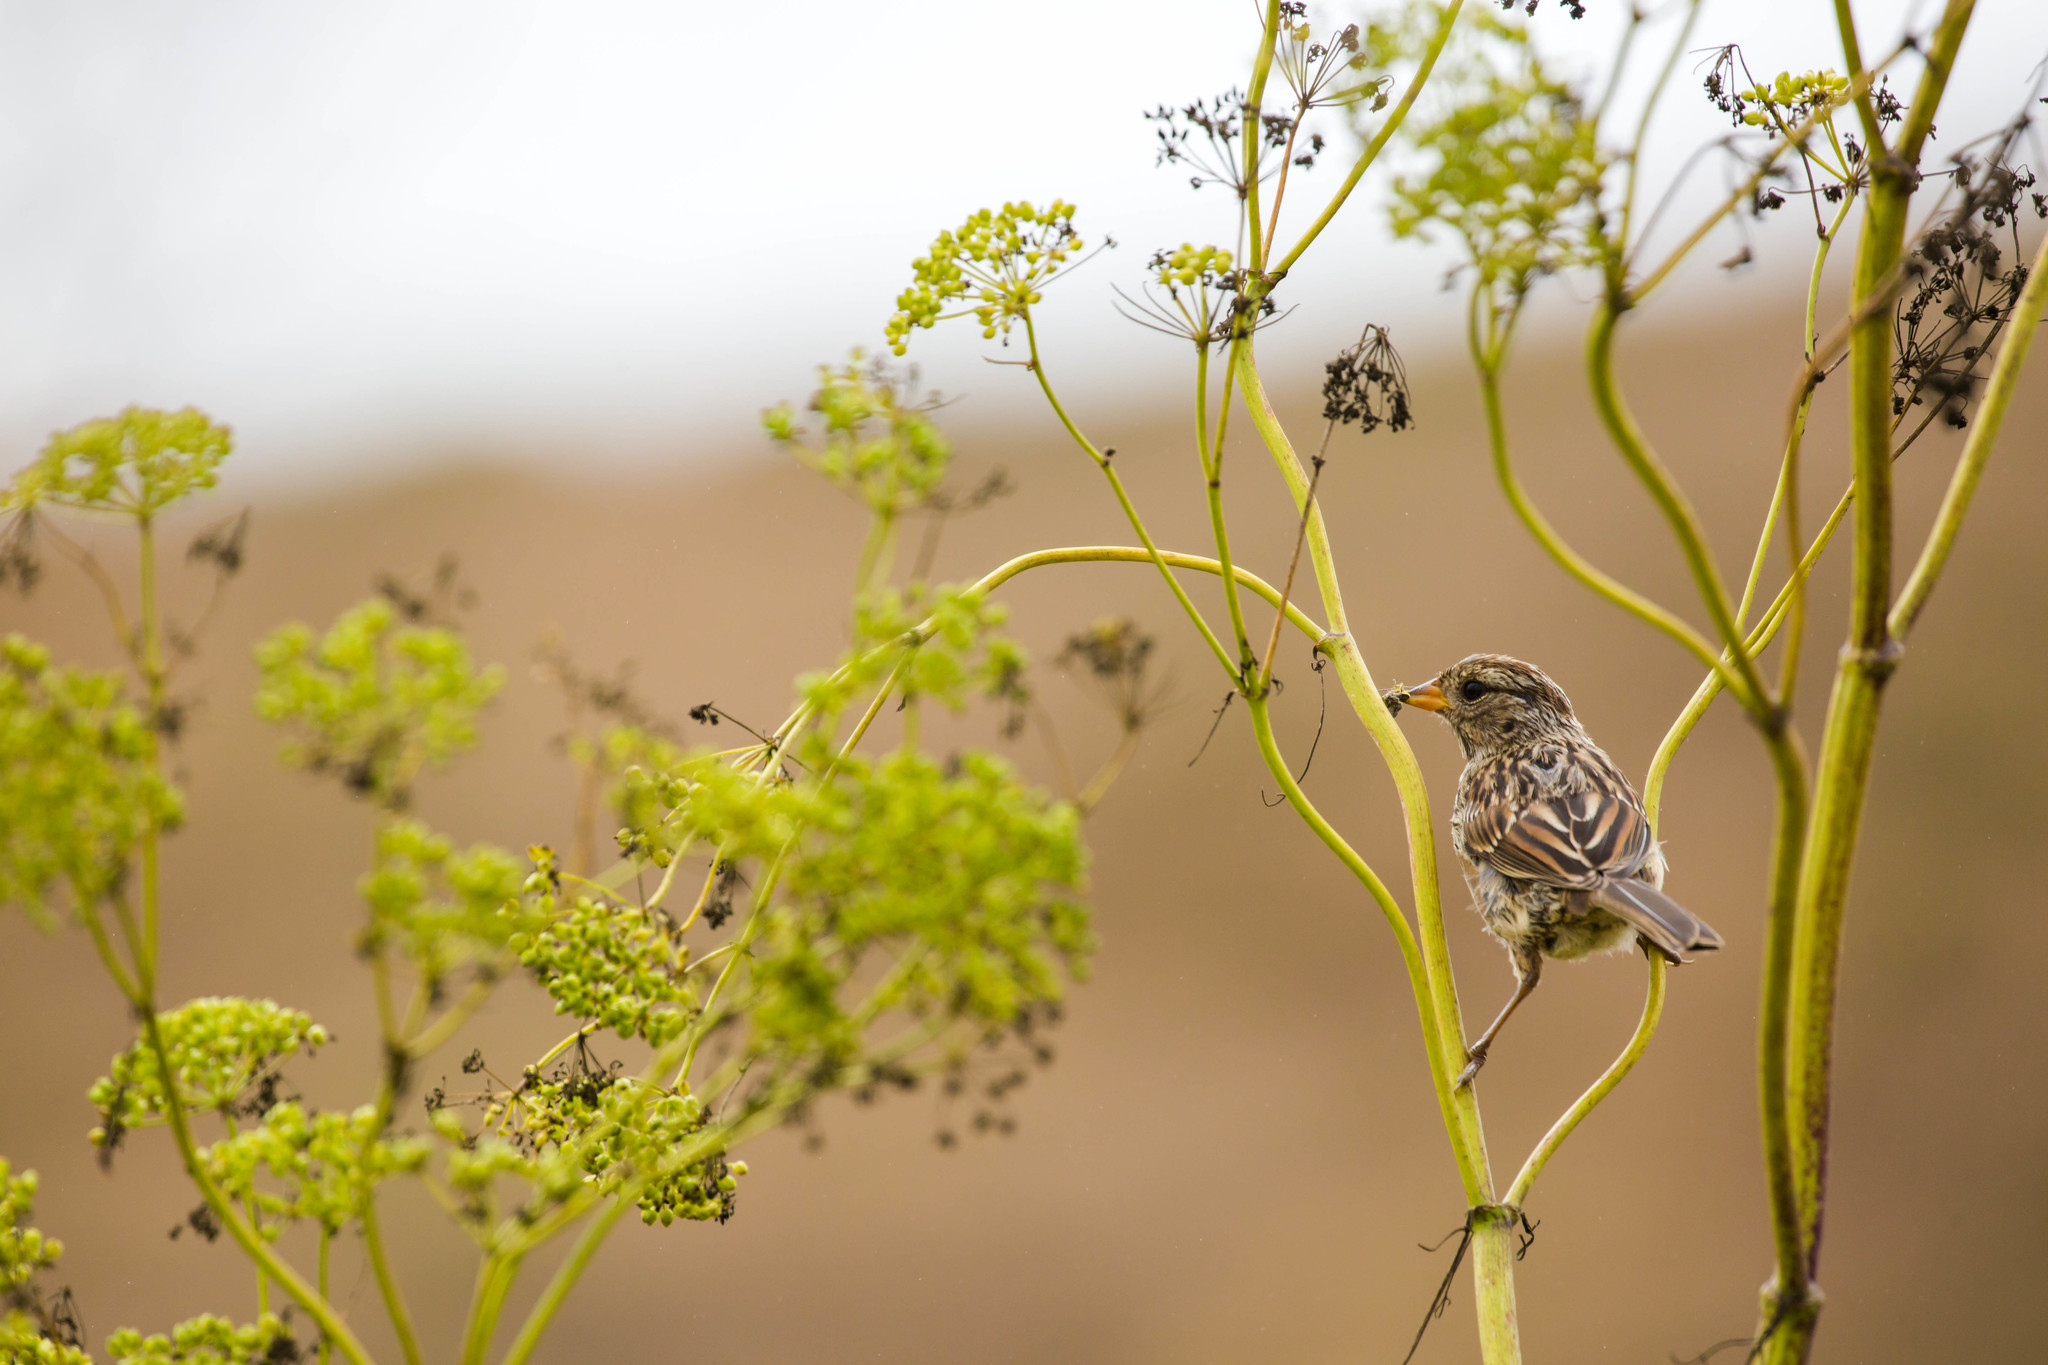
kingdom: Animalia
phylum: Chordata
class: Aves
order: Passeriformes
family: Passerellidae
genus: Zonotrichia
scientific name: Zonotrichia leucophrys
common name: White-crowned sparrow
